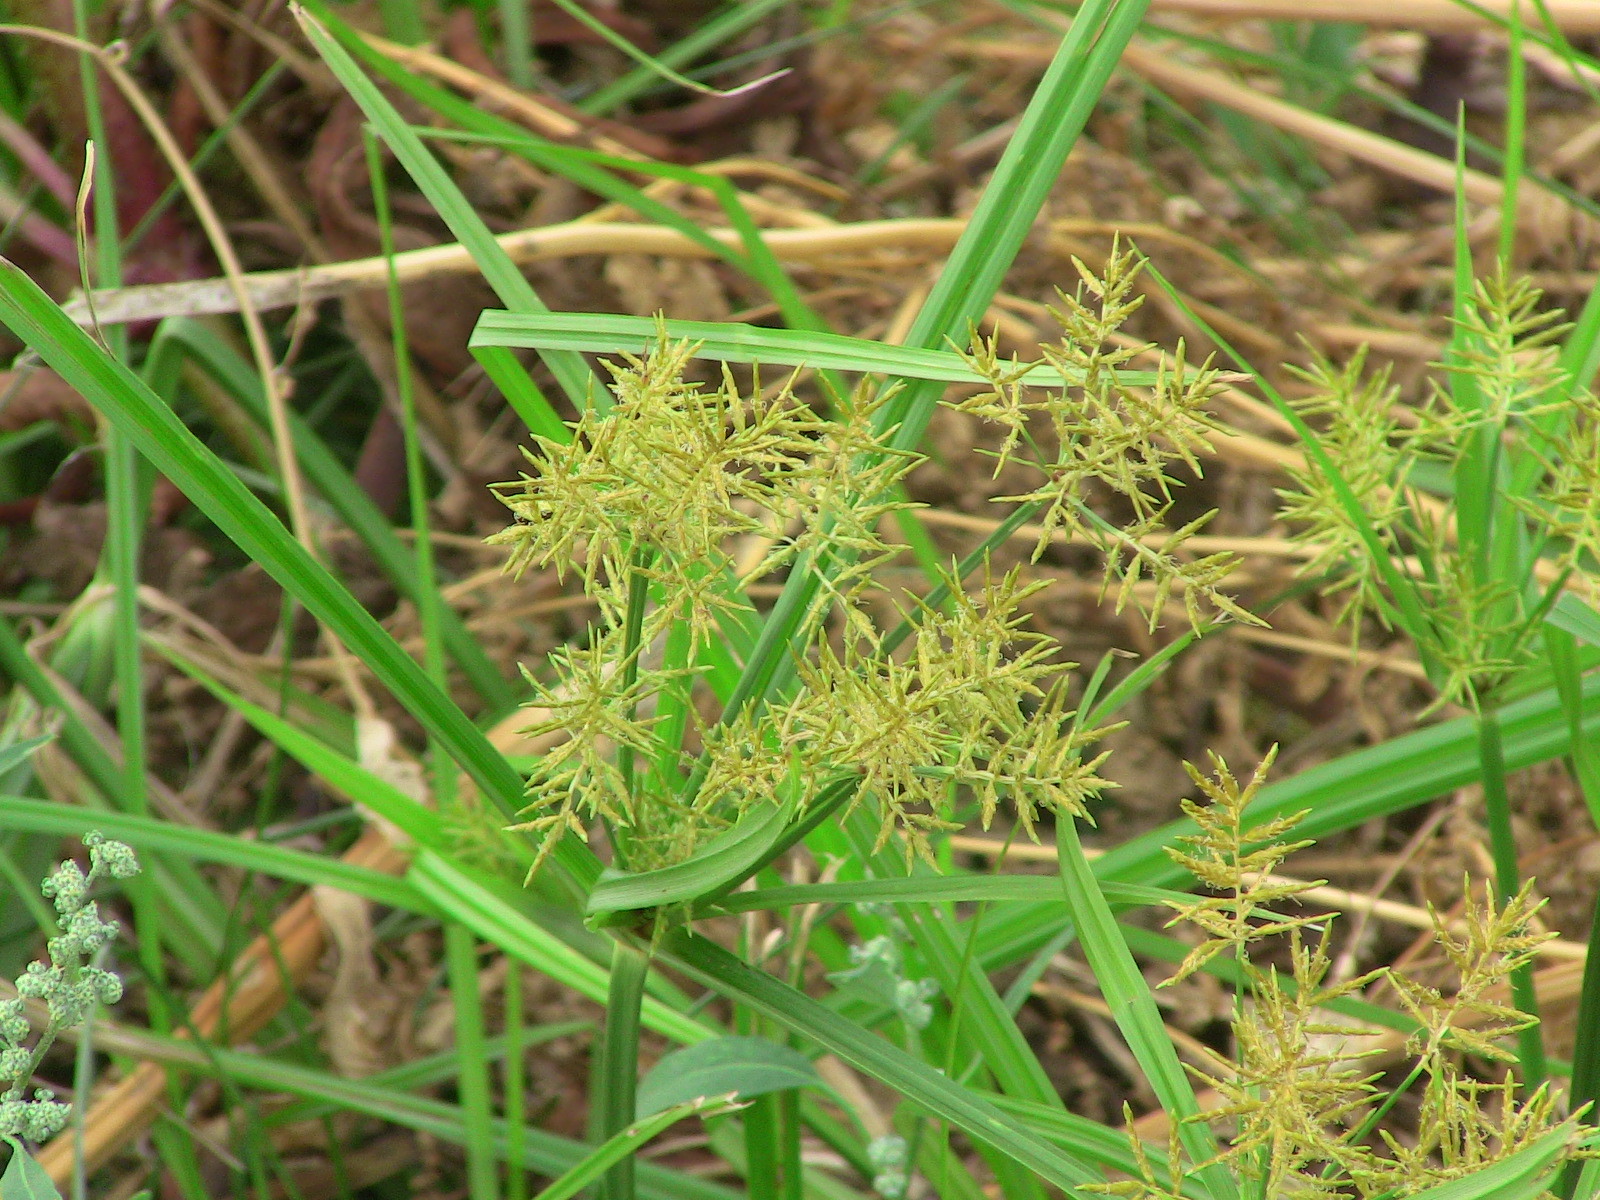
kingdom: Plantae
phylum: Tracheophyta
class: Liliopsida
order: Poales
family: Cyperaceae
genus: Cyperus
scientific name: Cyperus esculentus
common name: Yellow nutsedge
